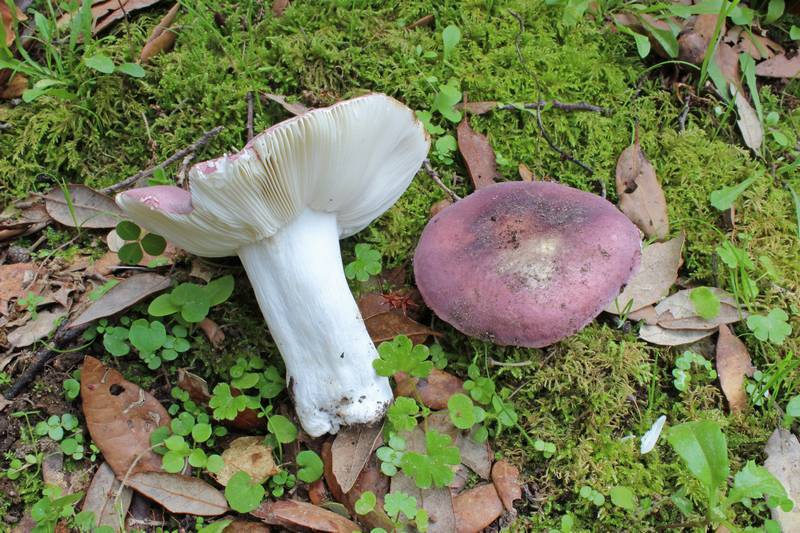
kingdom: Fungi
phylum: Basidiomycota
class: Agaricomycetes
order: Russulales
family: Russulaceae
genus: Russula
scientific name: Russula subazurea
